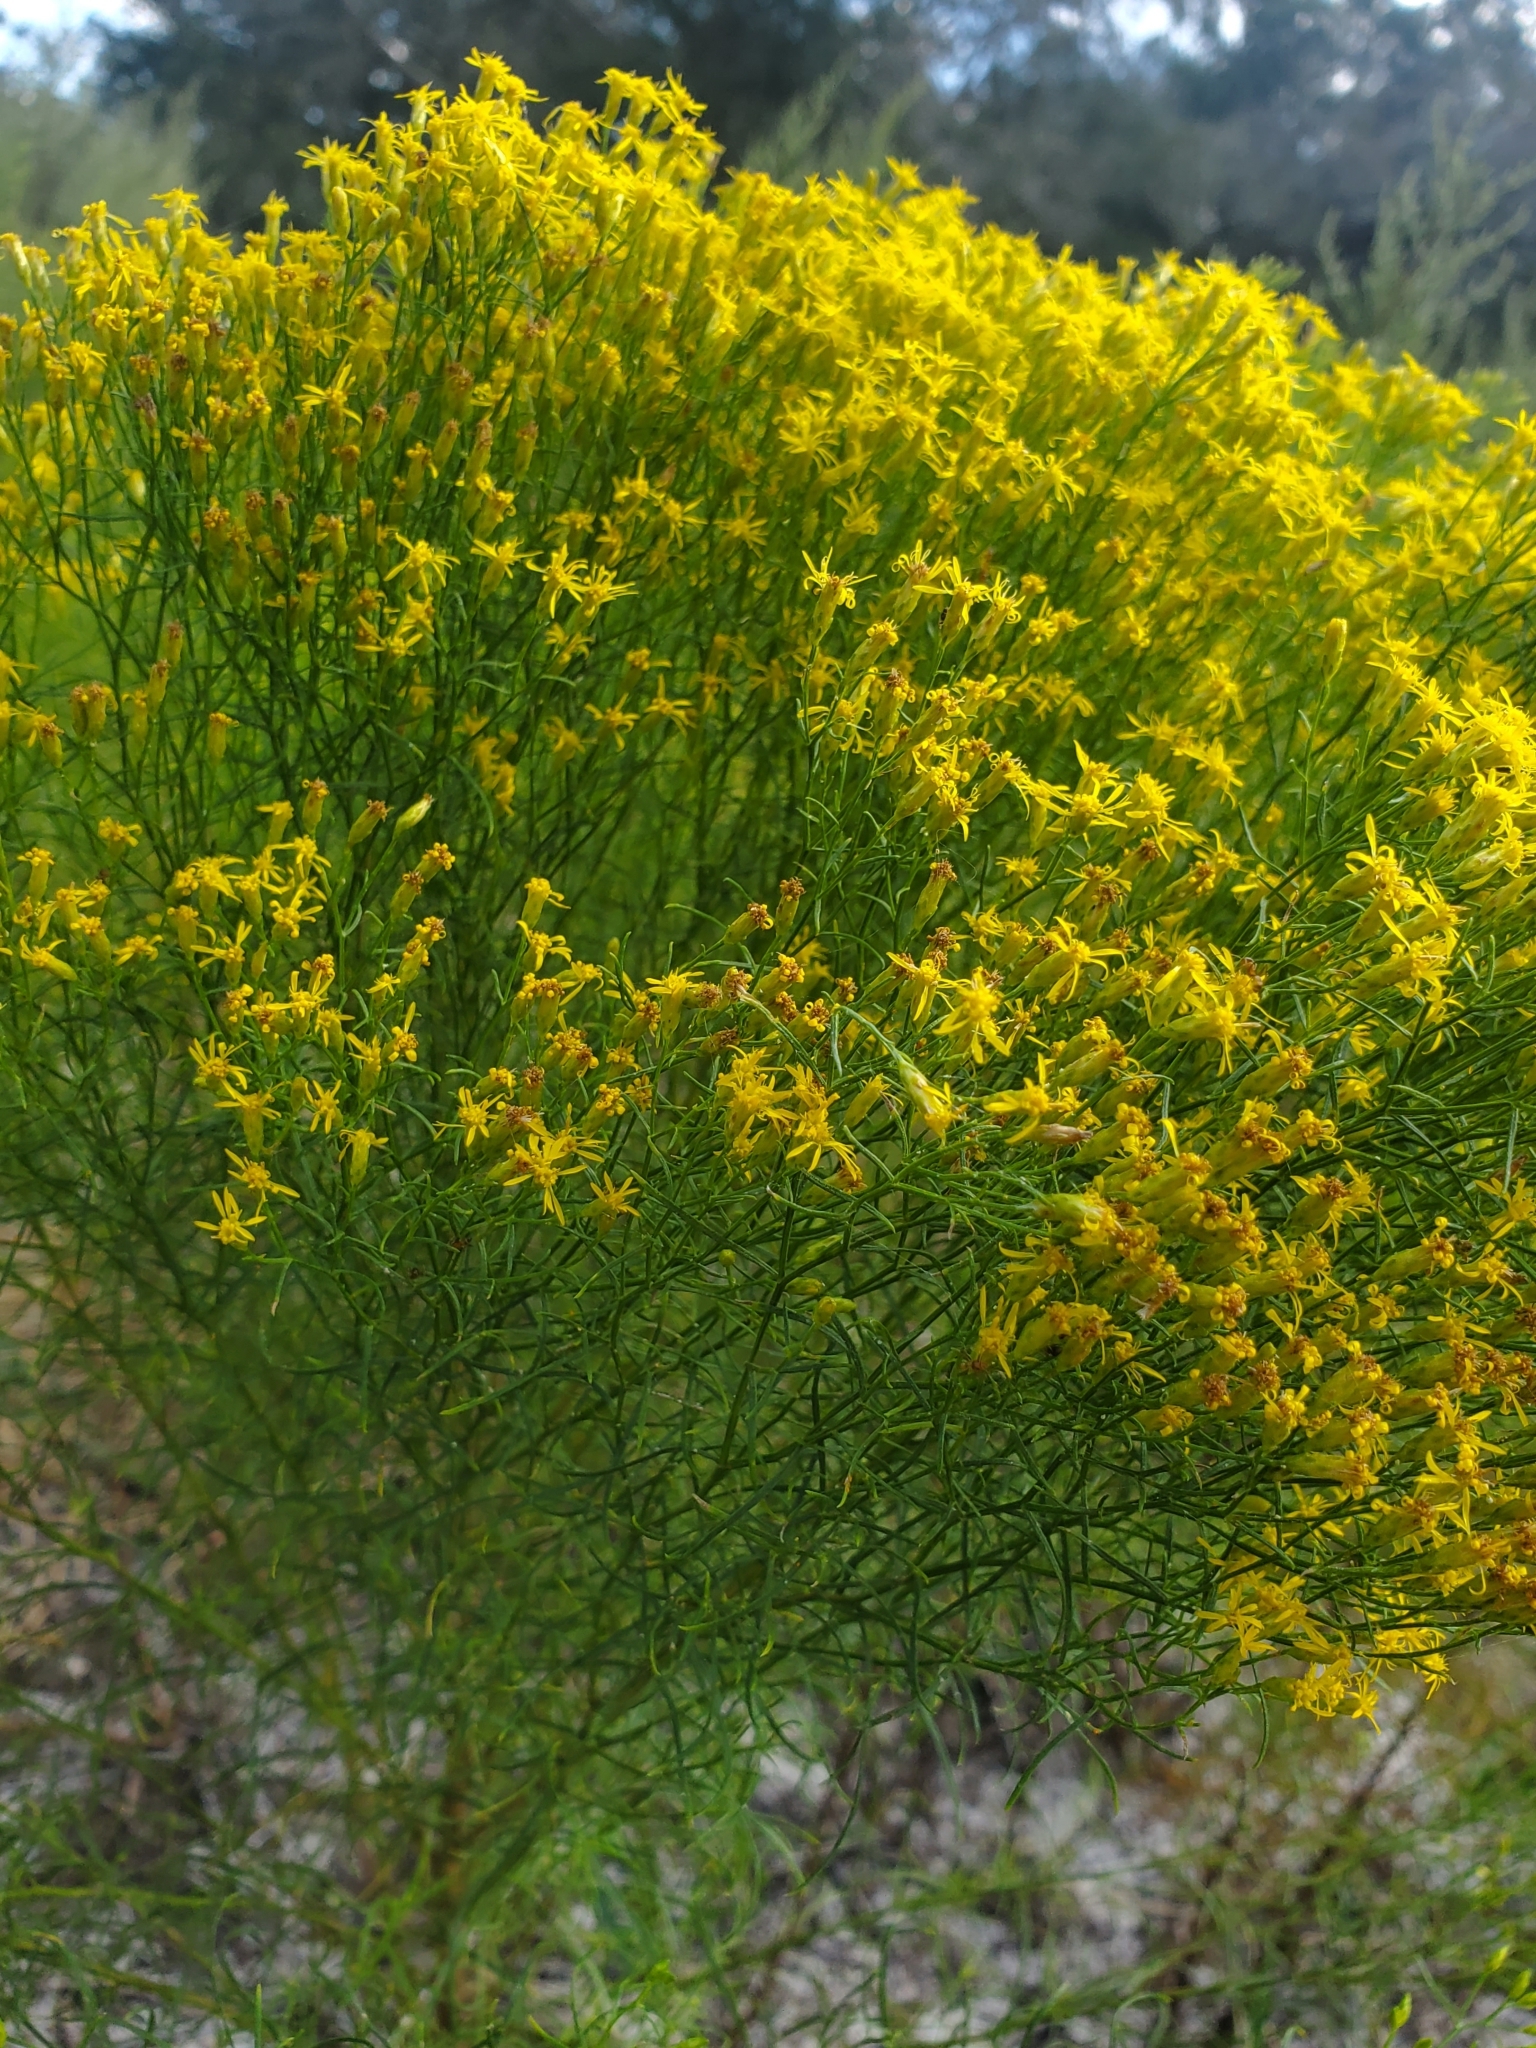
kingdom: Plantae
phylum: Tracheophyta
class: Magnoliopsida
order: Asterales
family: Asteraceae
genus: Euthamia
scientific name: Euthamia caroliniana
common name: Coastal plain goldentop
